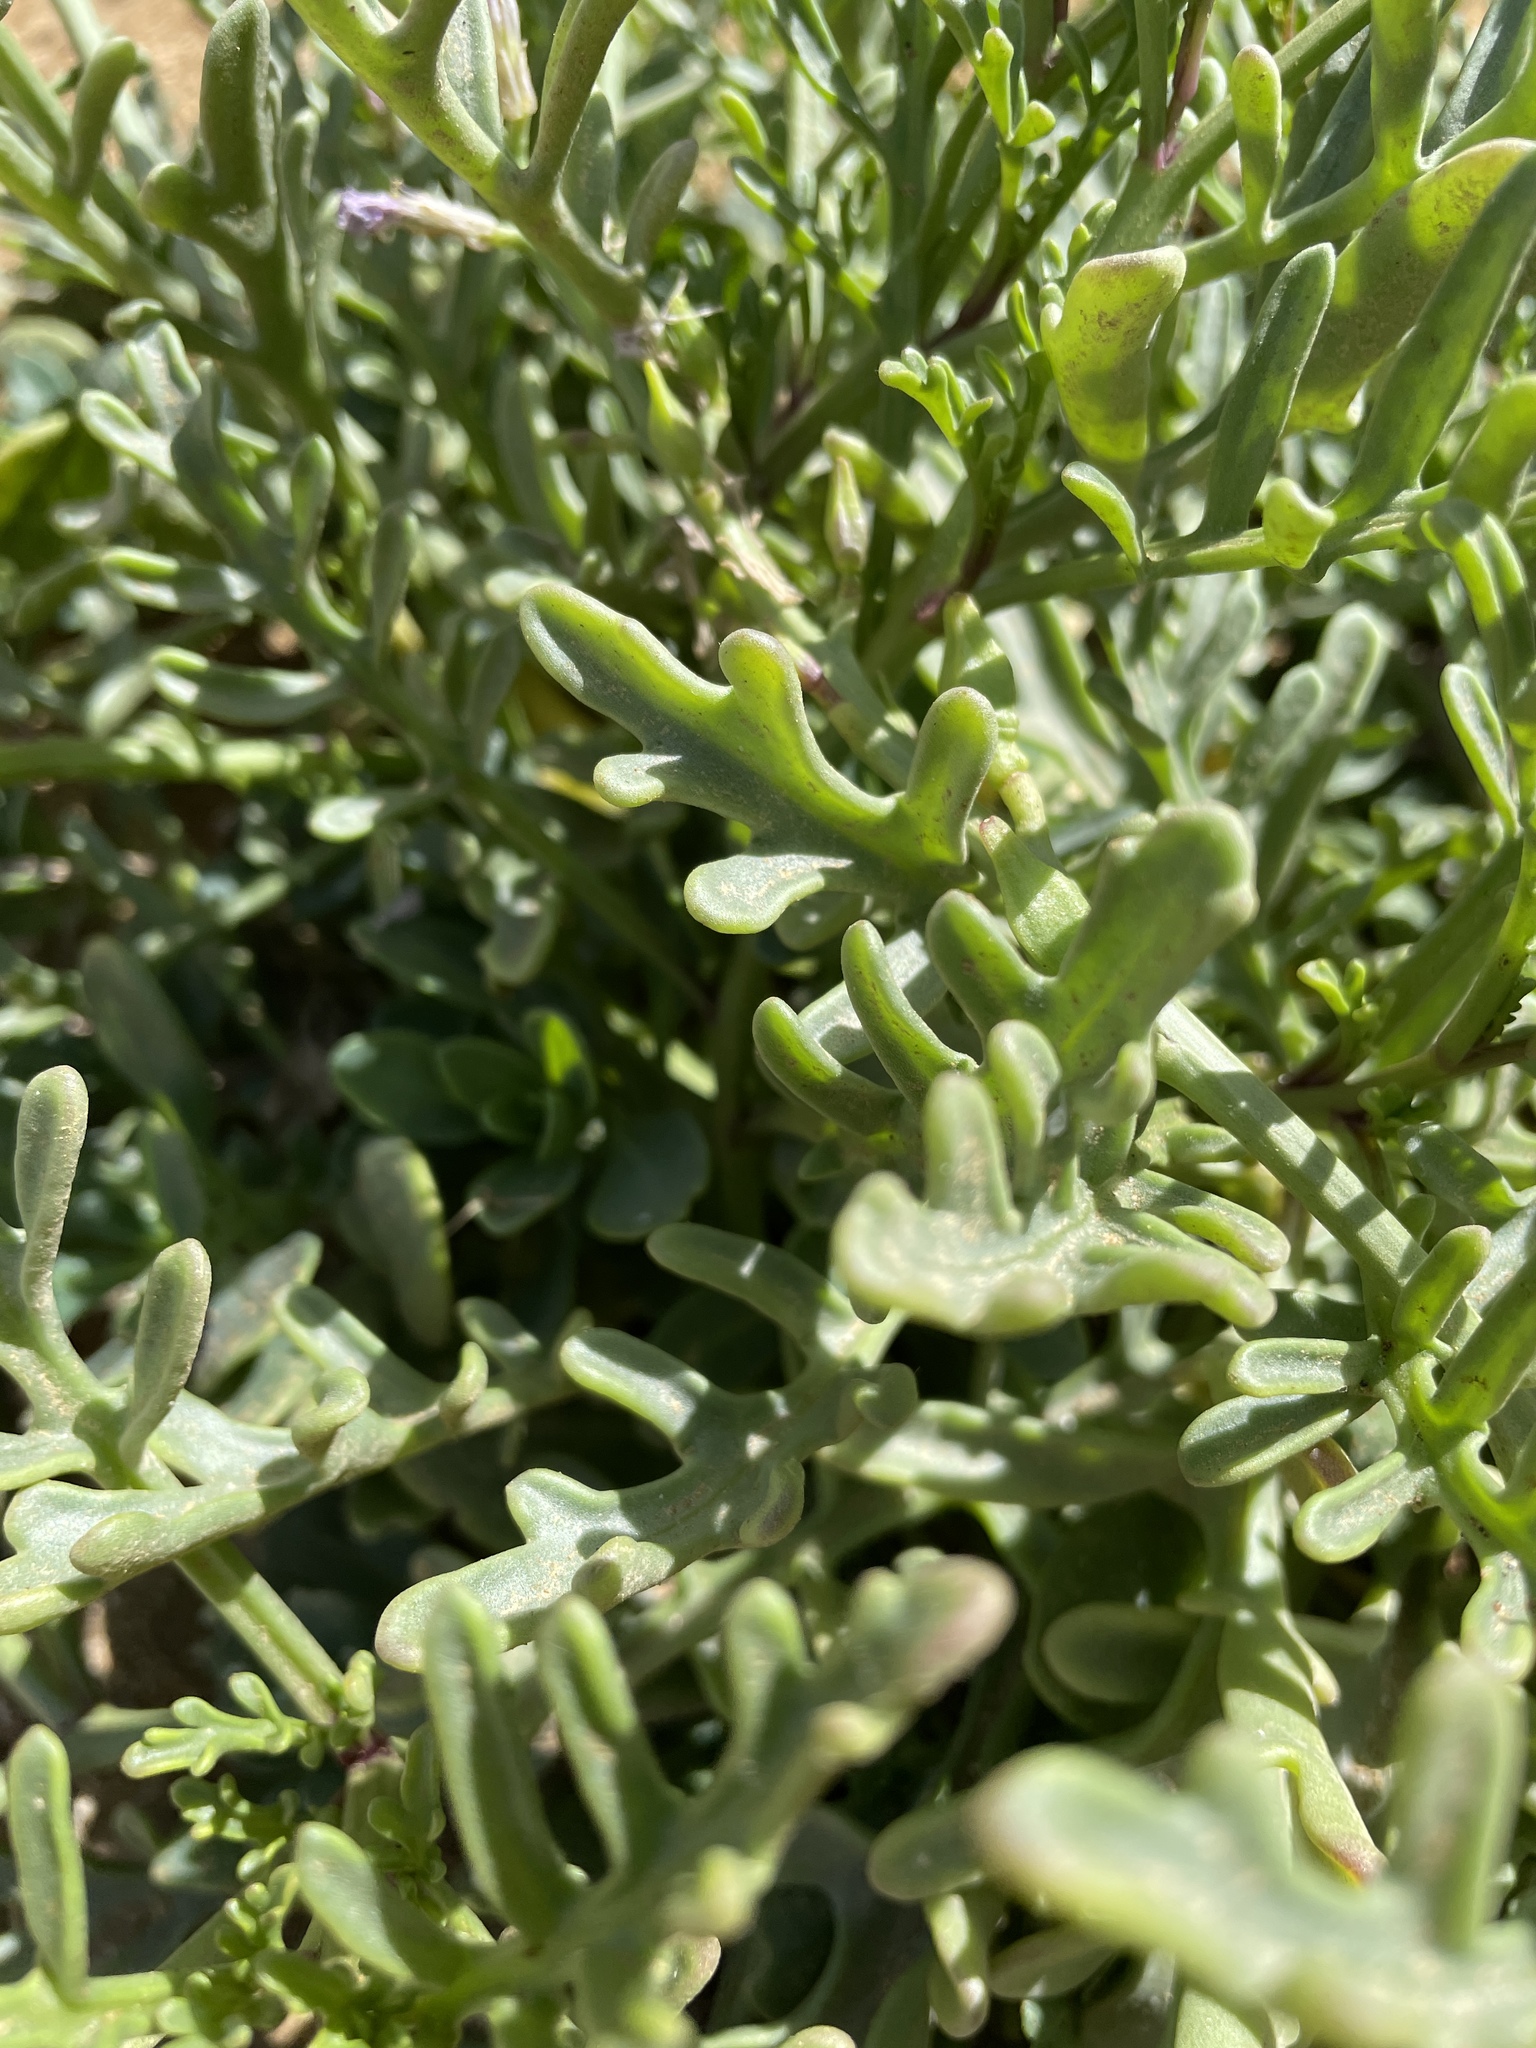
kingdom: Plantae
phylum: Tracheophyta
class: Magnoliopsida
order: Brassicales
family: Brassicaceae
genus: Cakile
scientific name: Cakile maritima
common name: Sea rocket
